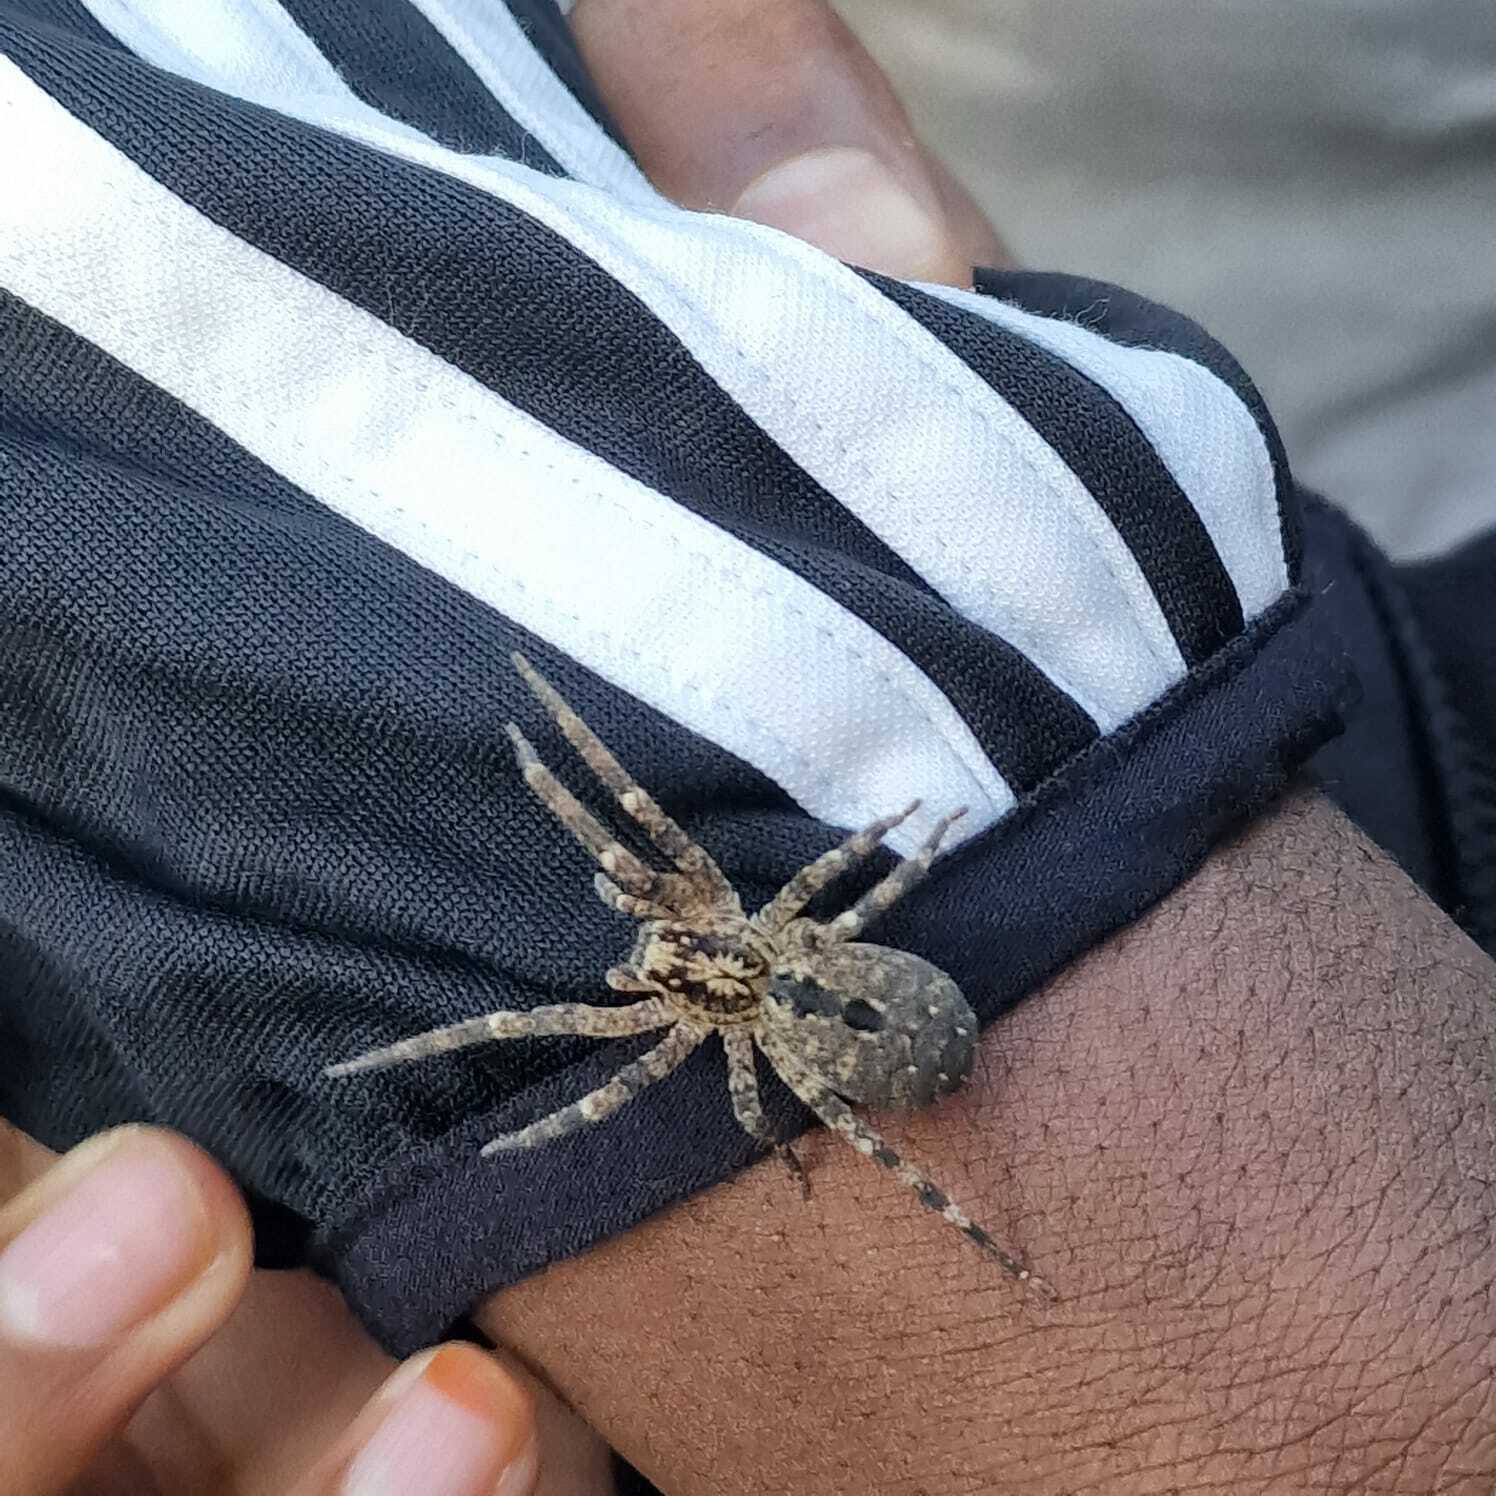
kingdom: Animalia
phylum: Arthropoda
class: Arachnida
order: Araneae
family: Zoropsidae
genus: Zoropsis
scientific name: Zoropsis spinimana
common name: Zoropsid spider
